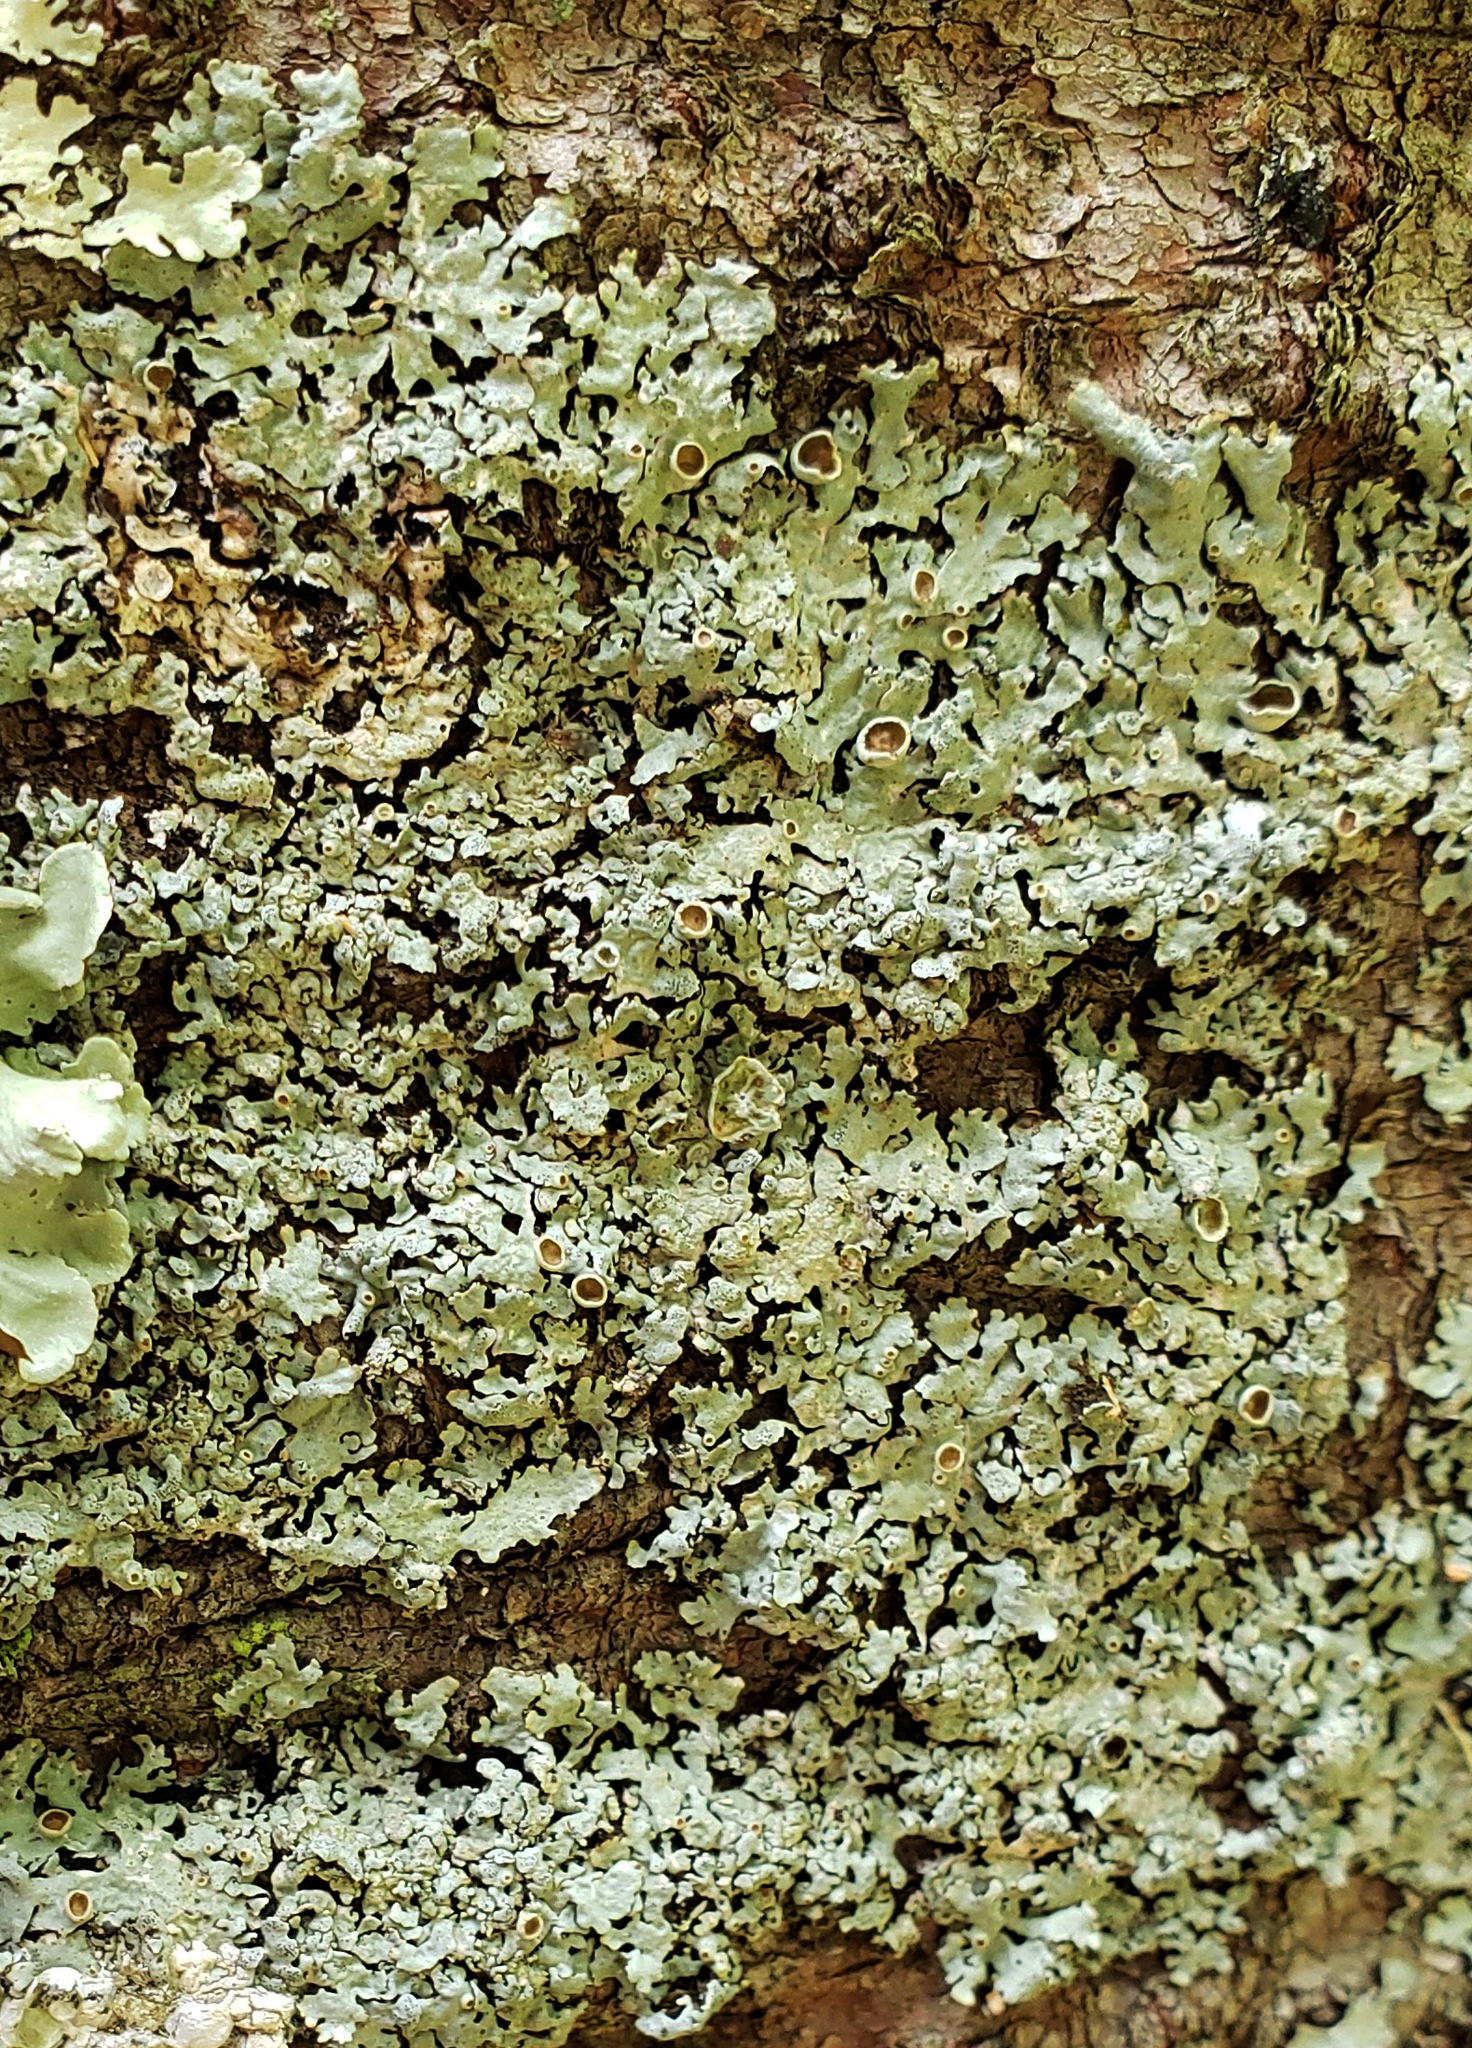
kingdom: Fungi
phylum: Ascomycota
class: Lecanoromycetes
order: Lecanorales
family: Parmeliaceae
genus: Myelochroa
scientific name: Myelochroa galbina
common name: Smooth axil-bristle lichen
